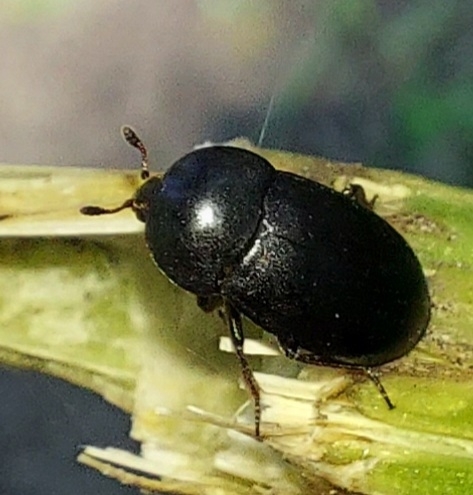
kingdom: Animalia
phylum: Arthropoda
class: Insecta
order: Coleoptera
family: Dermestidae
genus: Dermestes
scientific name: Dermestes
